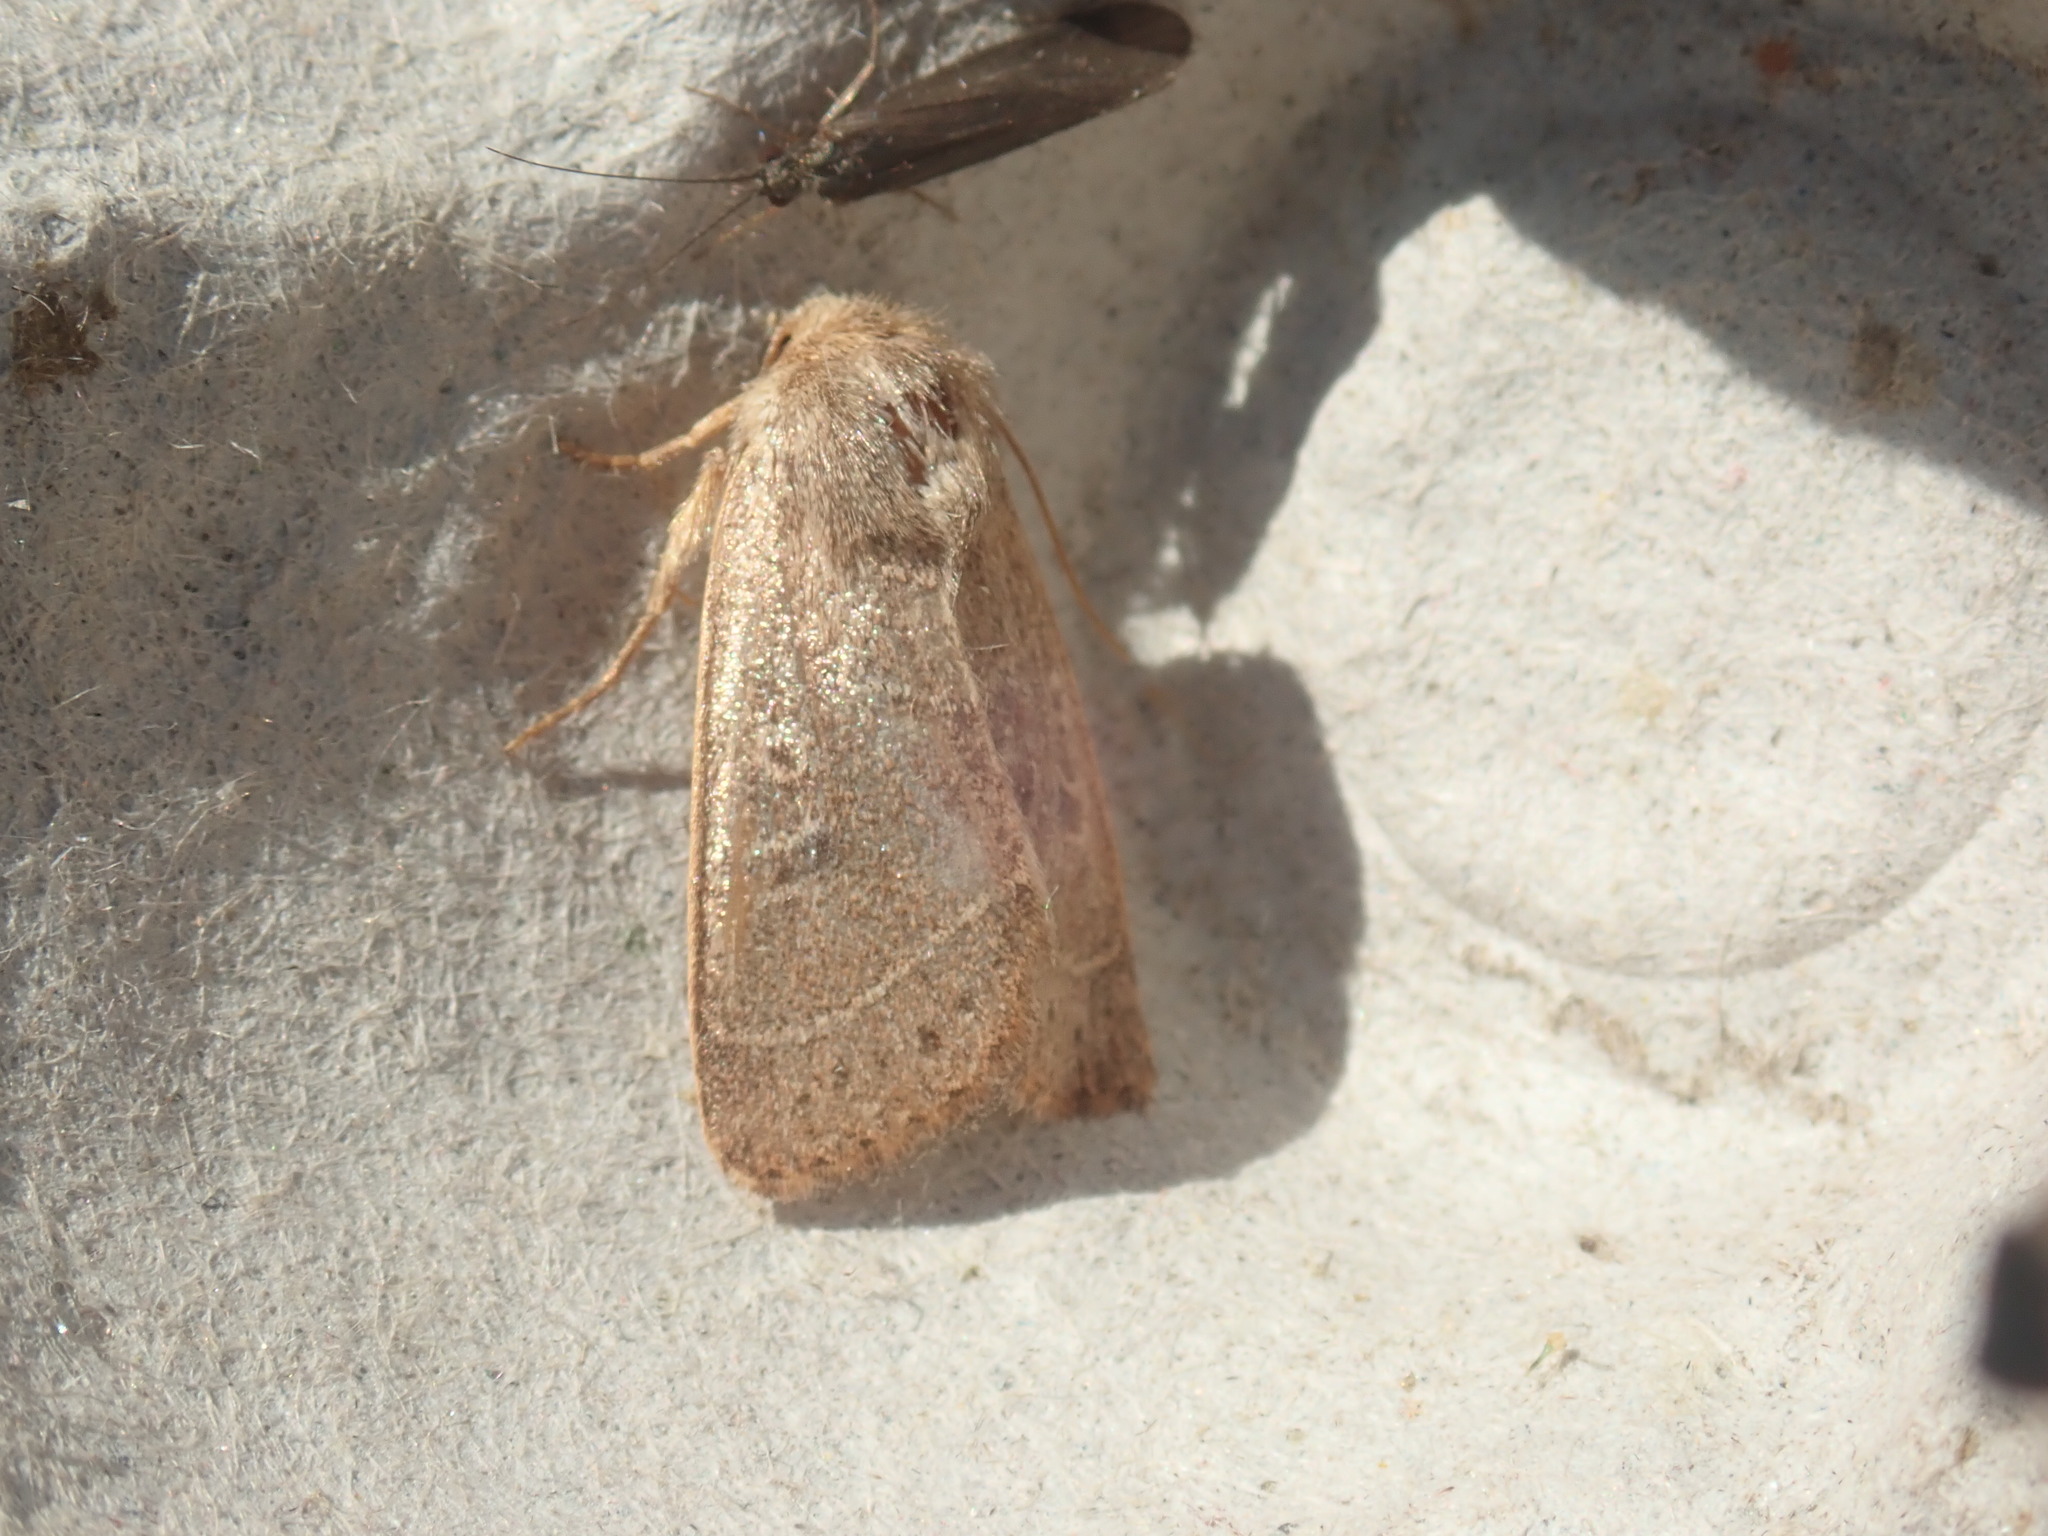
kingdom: Animalia
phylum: Arthropoda
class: Insecta
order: Lepidoptera
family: Noctuidae
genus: Ulolonche
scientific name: Ulolonche culea
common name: Sheathed quaker
